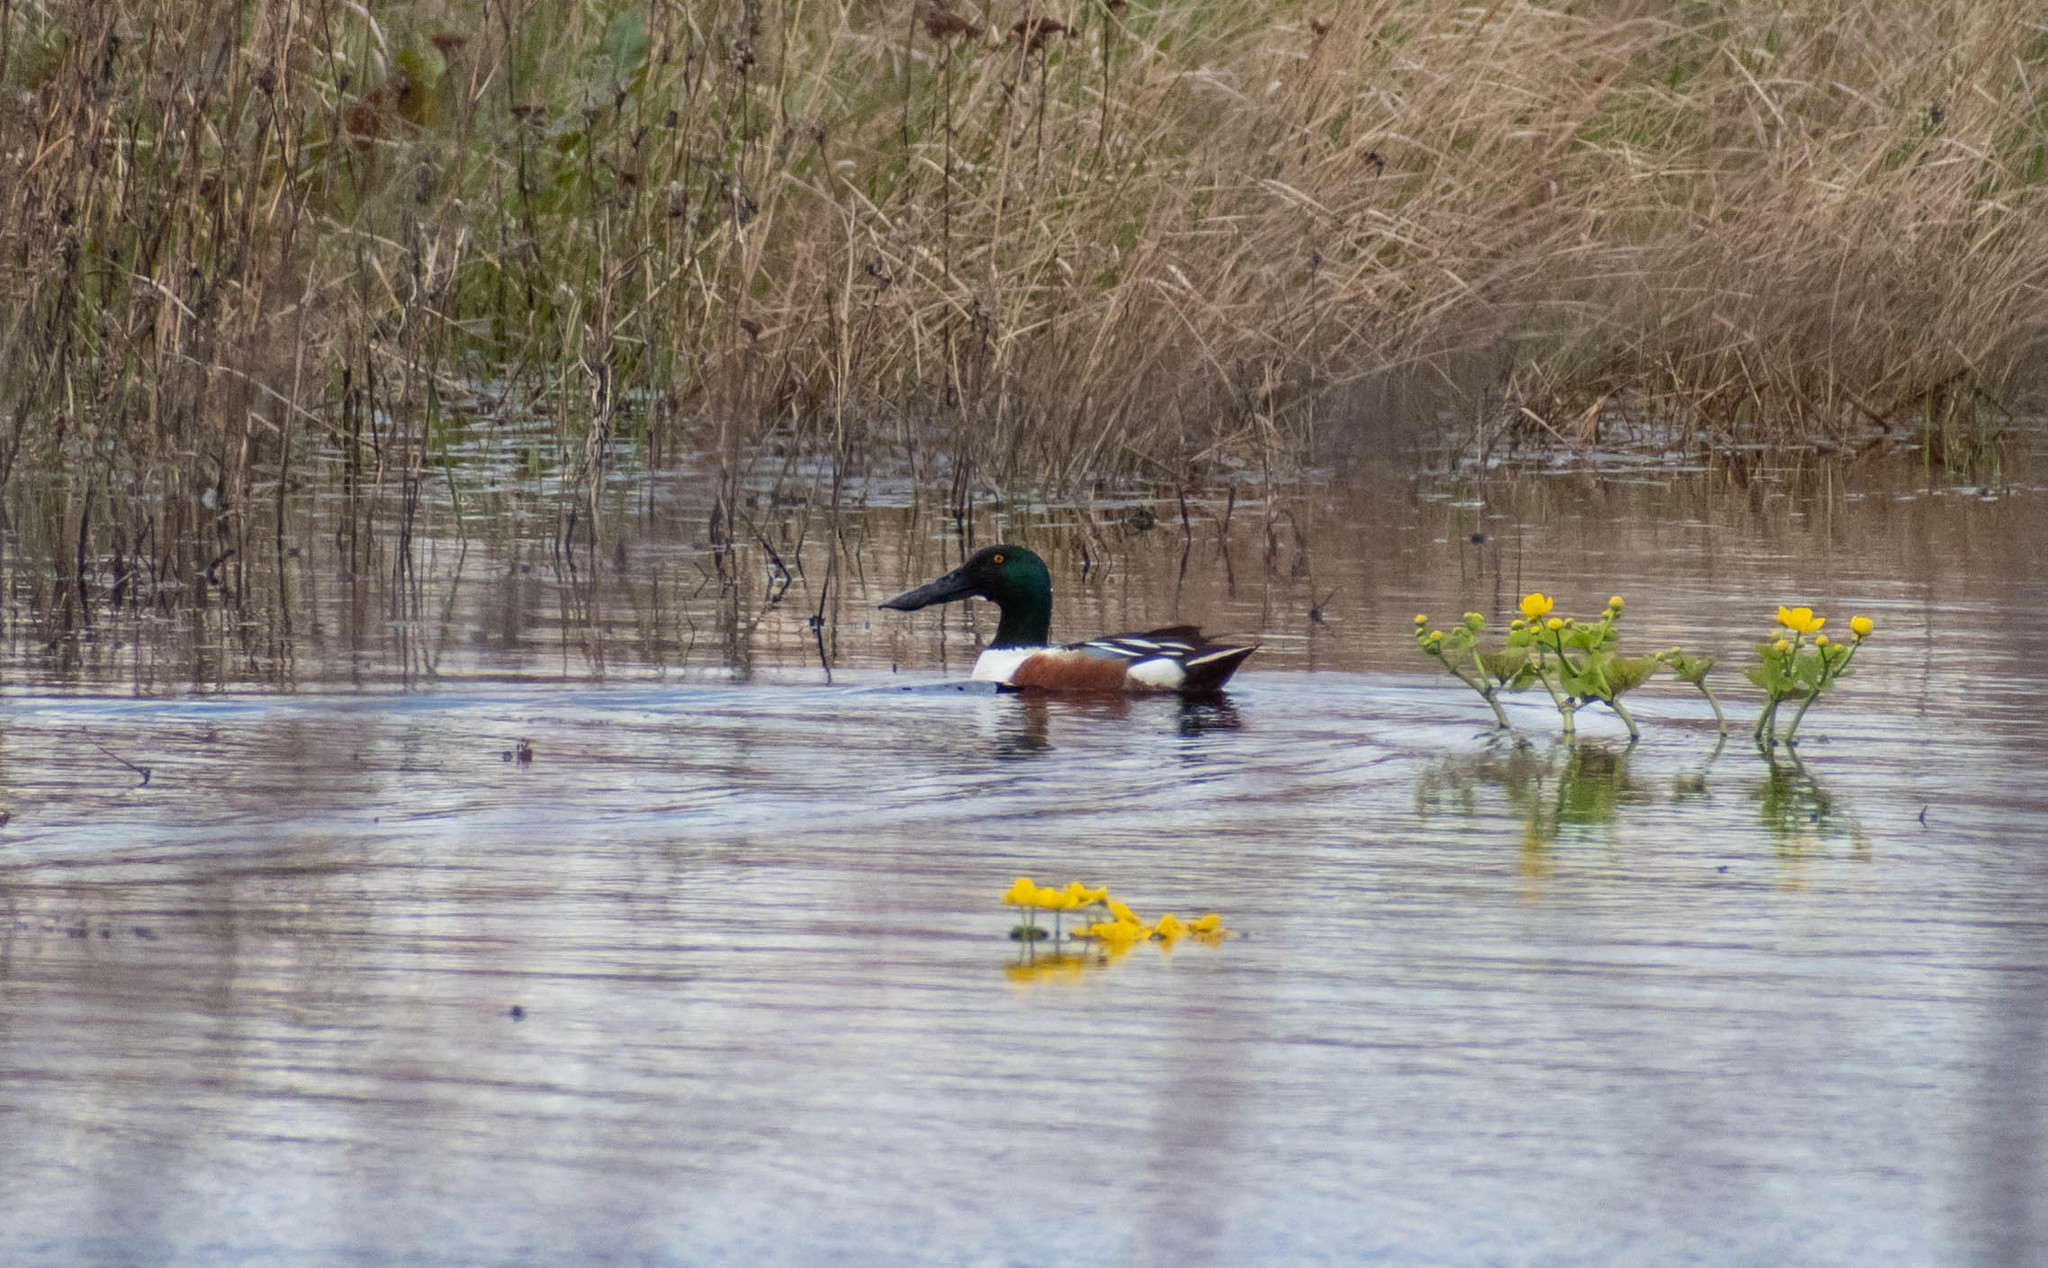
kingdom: Animalia
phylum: Chordata
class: Aves
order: Anseriformes
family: Anatidae
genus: Spatula
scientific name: Spatula clypeata
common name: Northern shoveler
